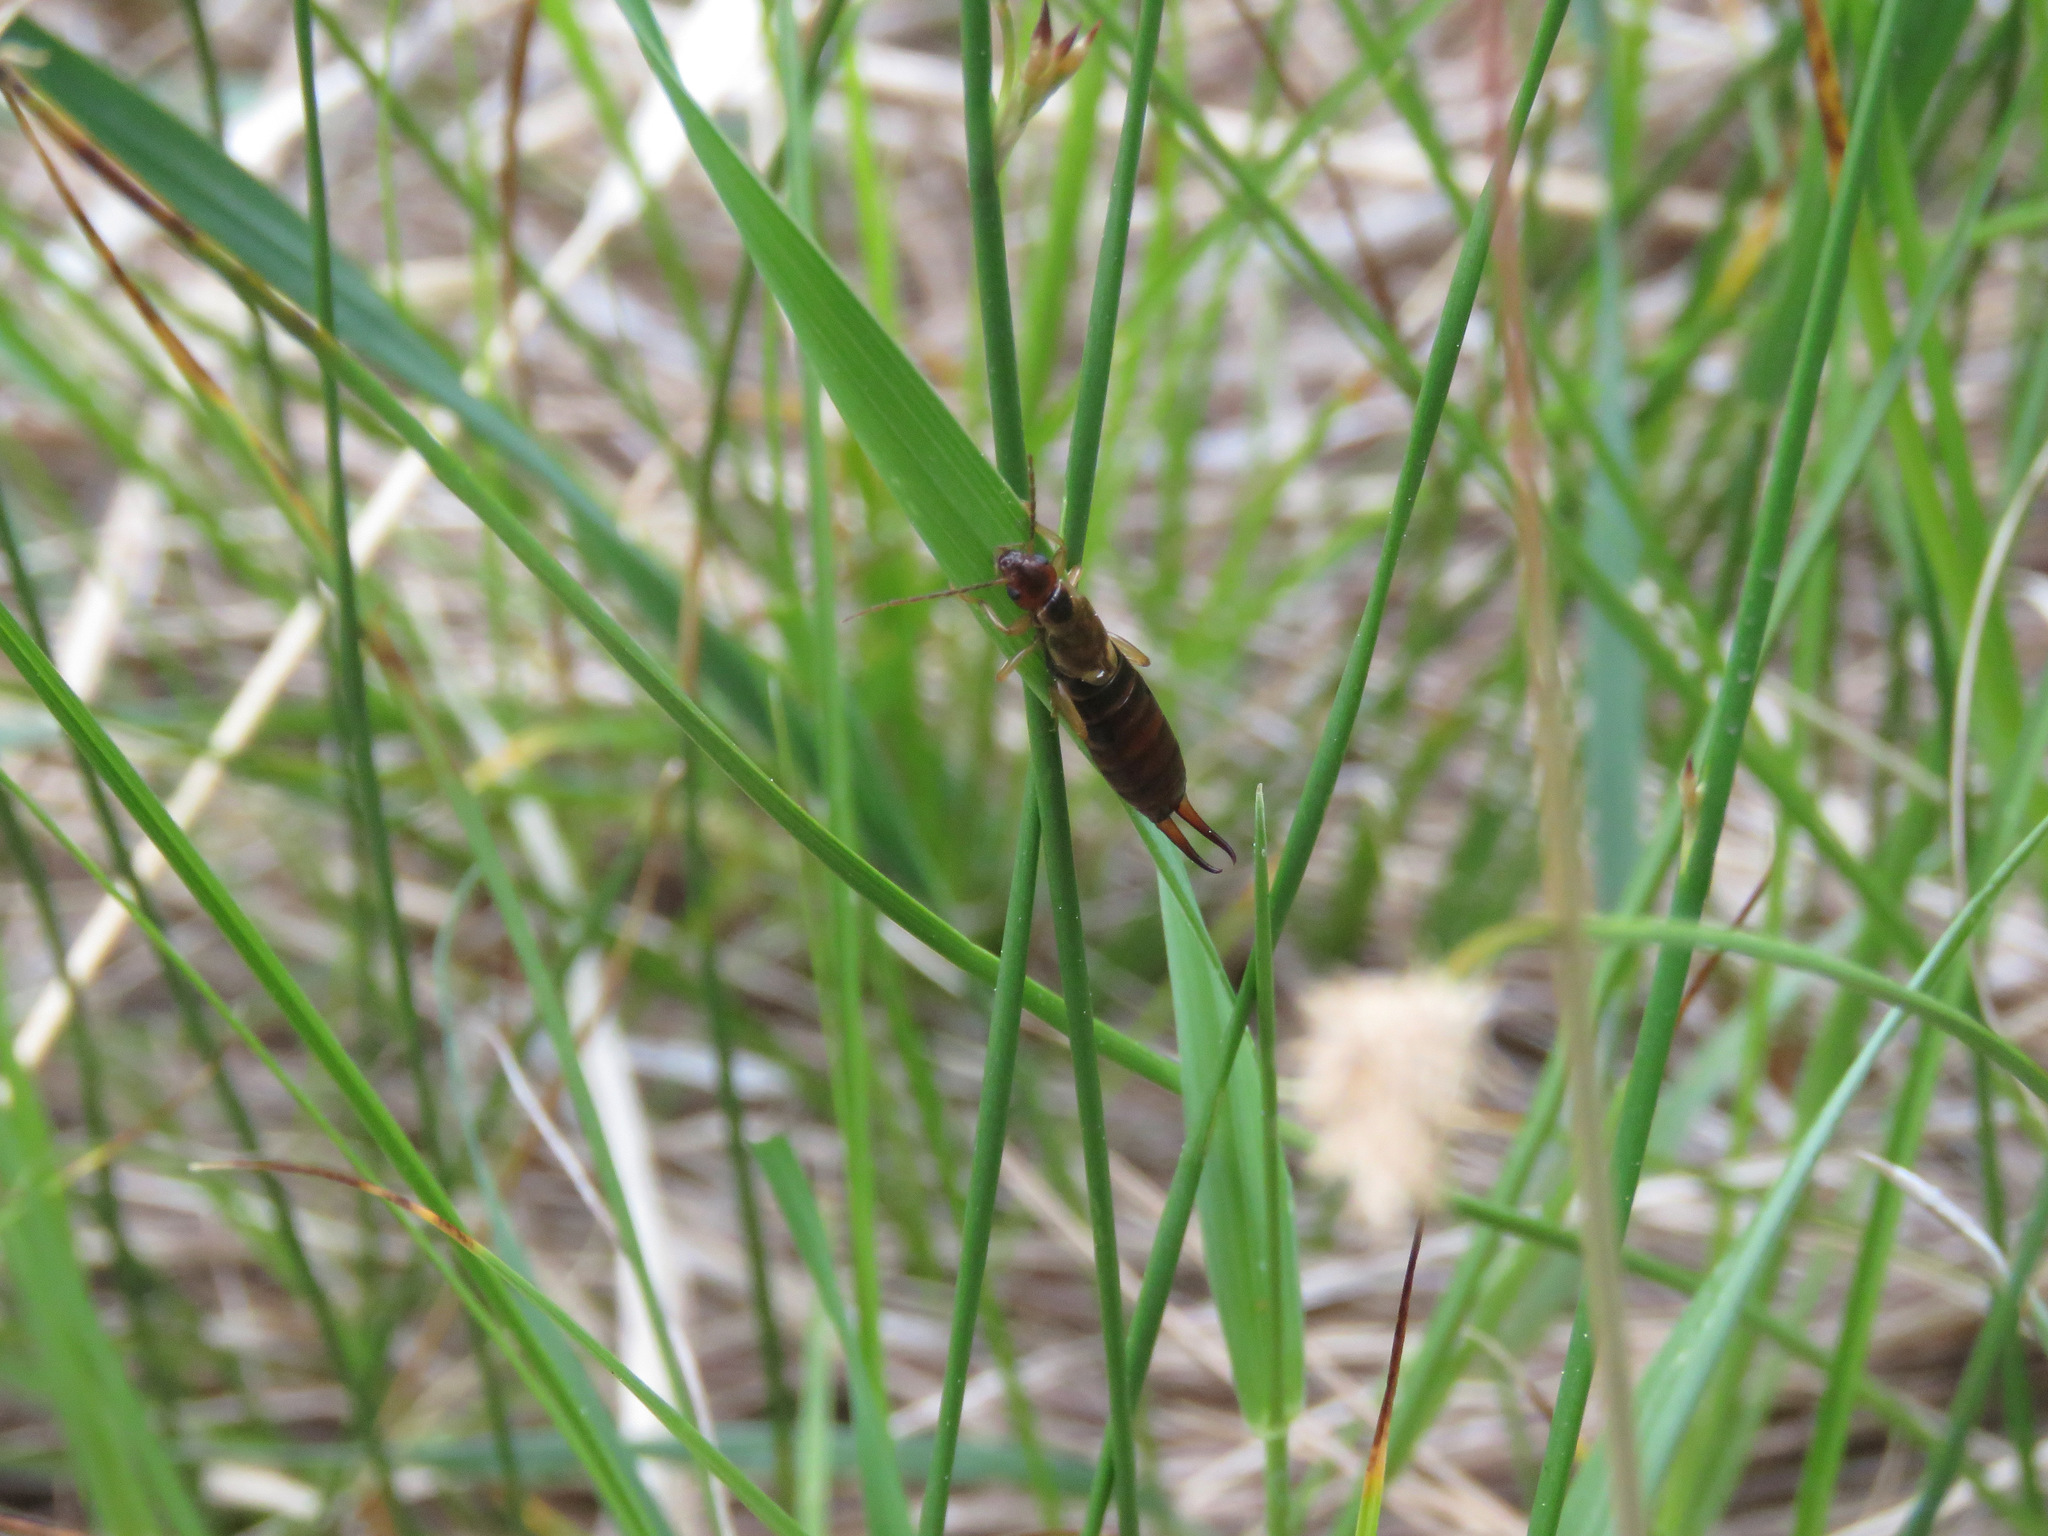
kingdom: Animalia
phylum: Arthropoda
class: Insecta
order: Dermaptera
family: Forficulidae
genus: Forficula
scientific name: Forficula
